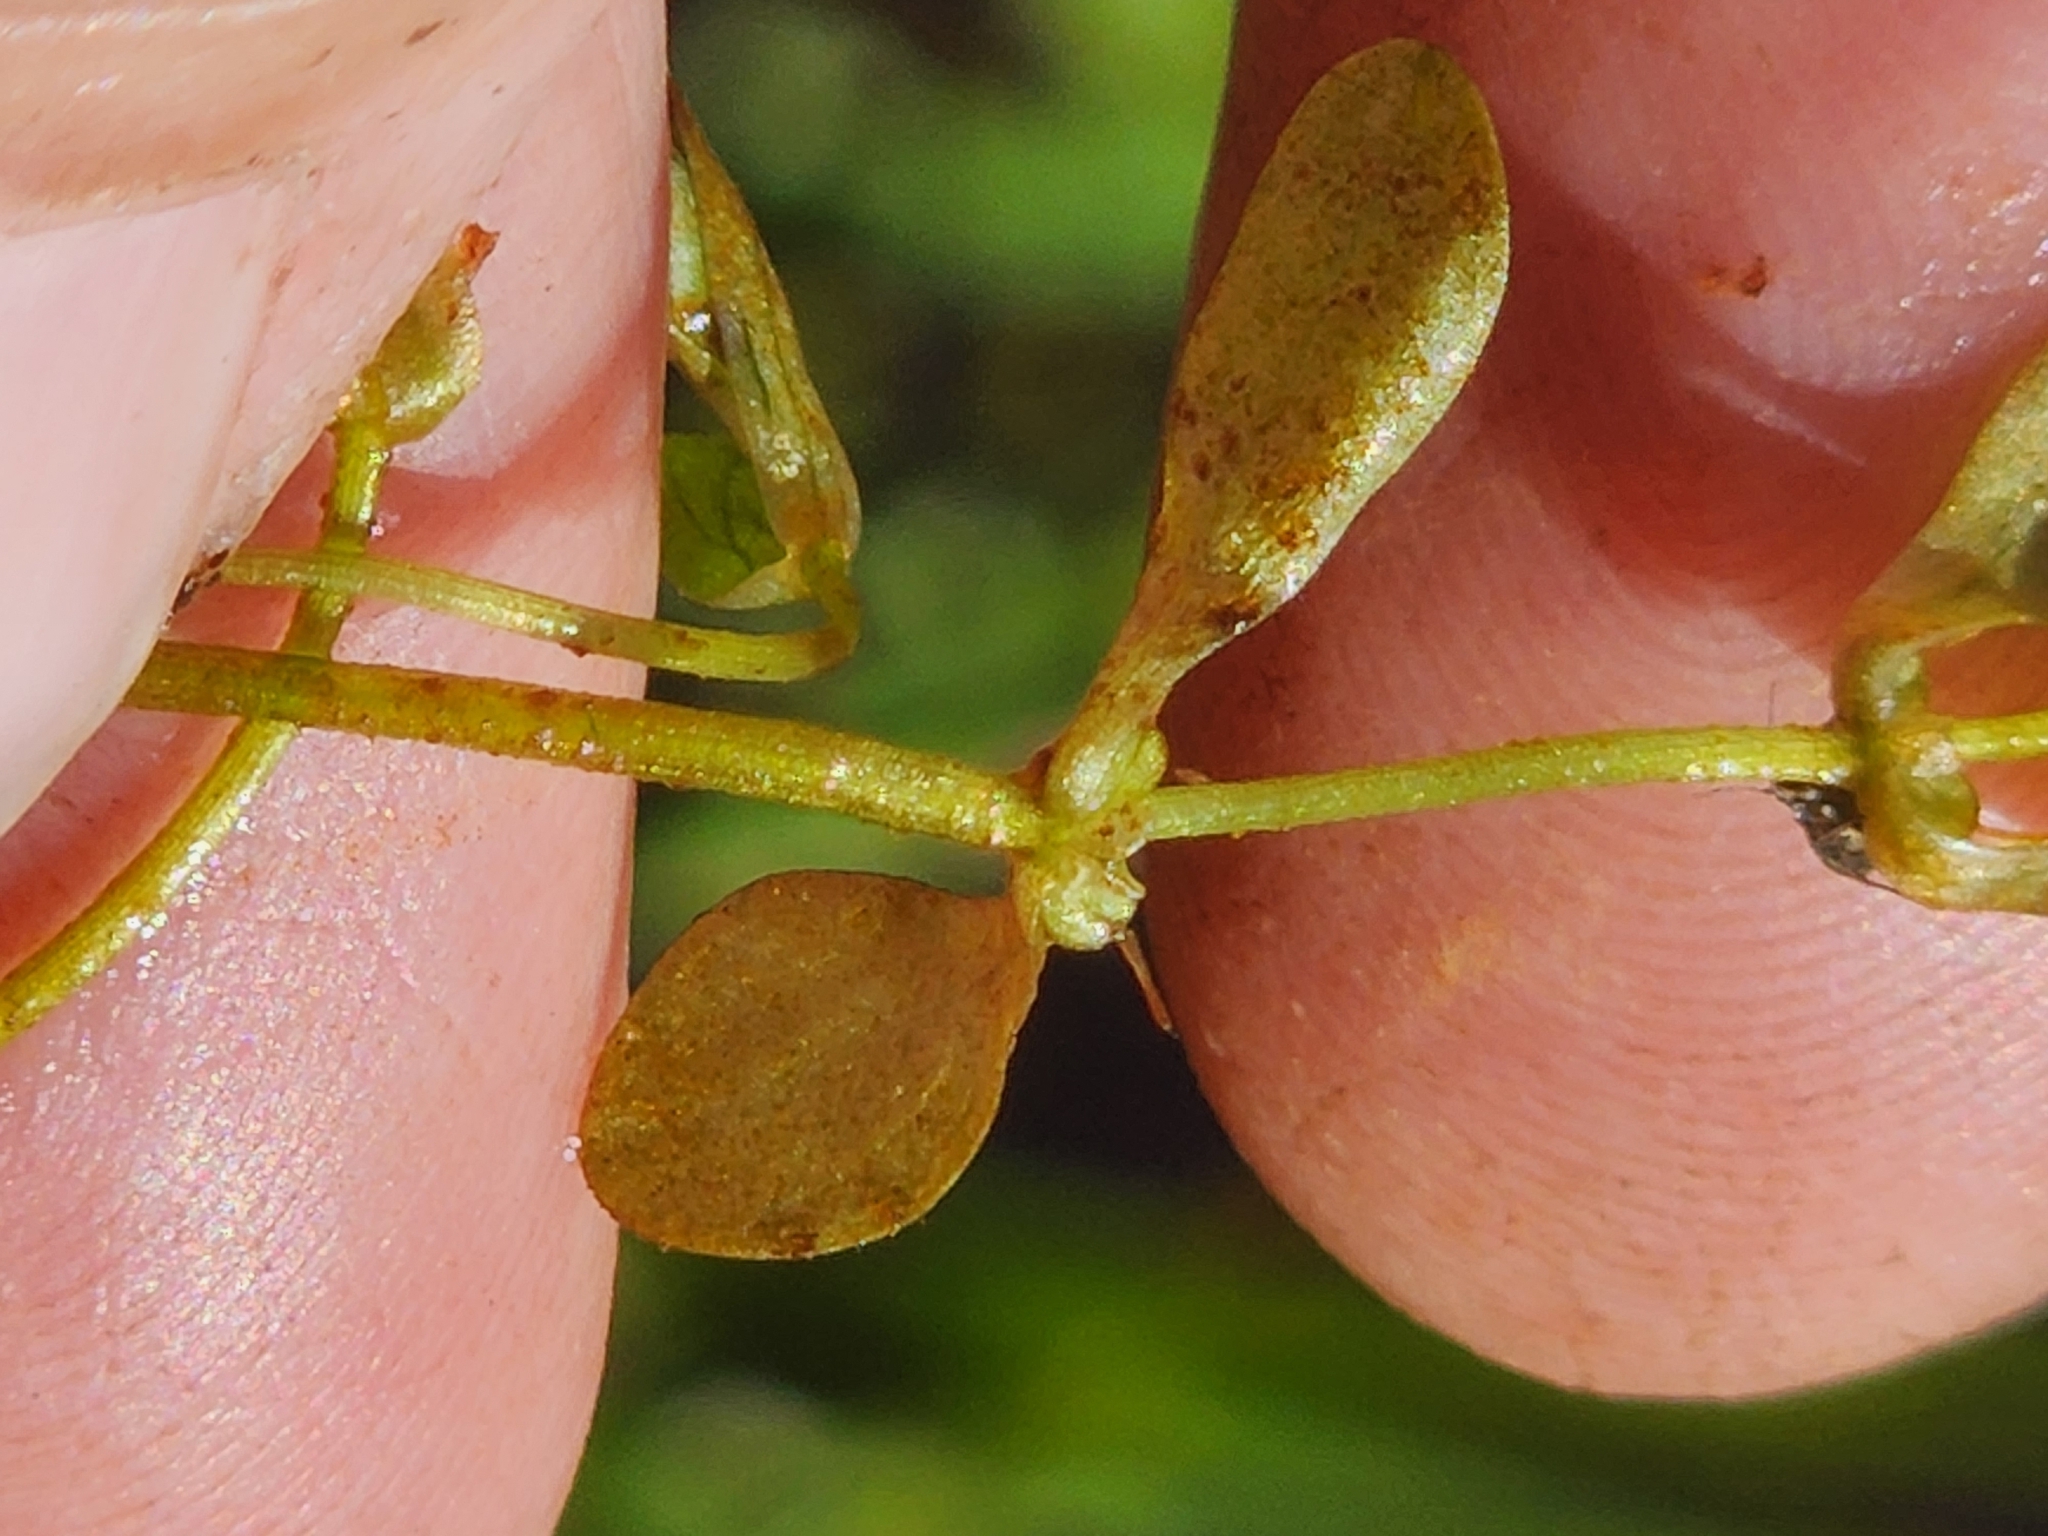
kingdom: Plantae
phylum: Tracheophyta
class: Magnoliopsida
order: Lamiales
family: Plantaginaceae
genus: Callitriche
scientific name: Callitriche palustris
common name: Spring water-starwort
